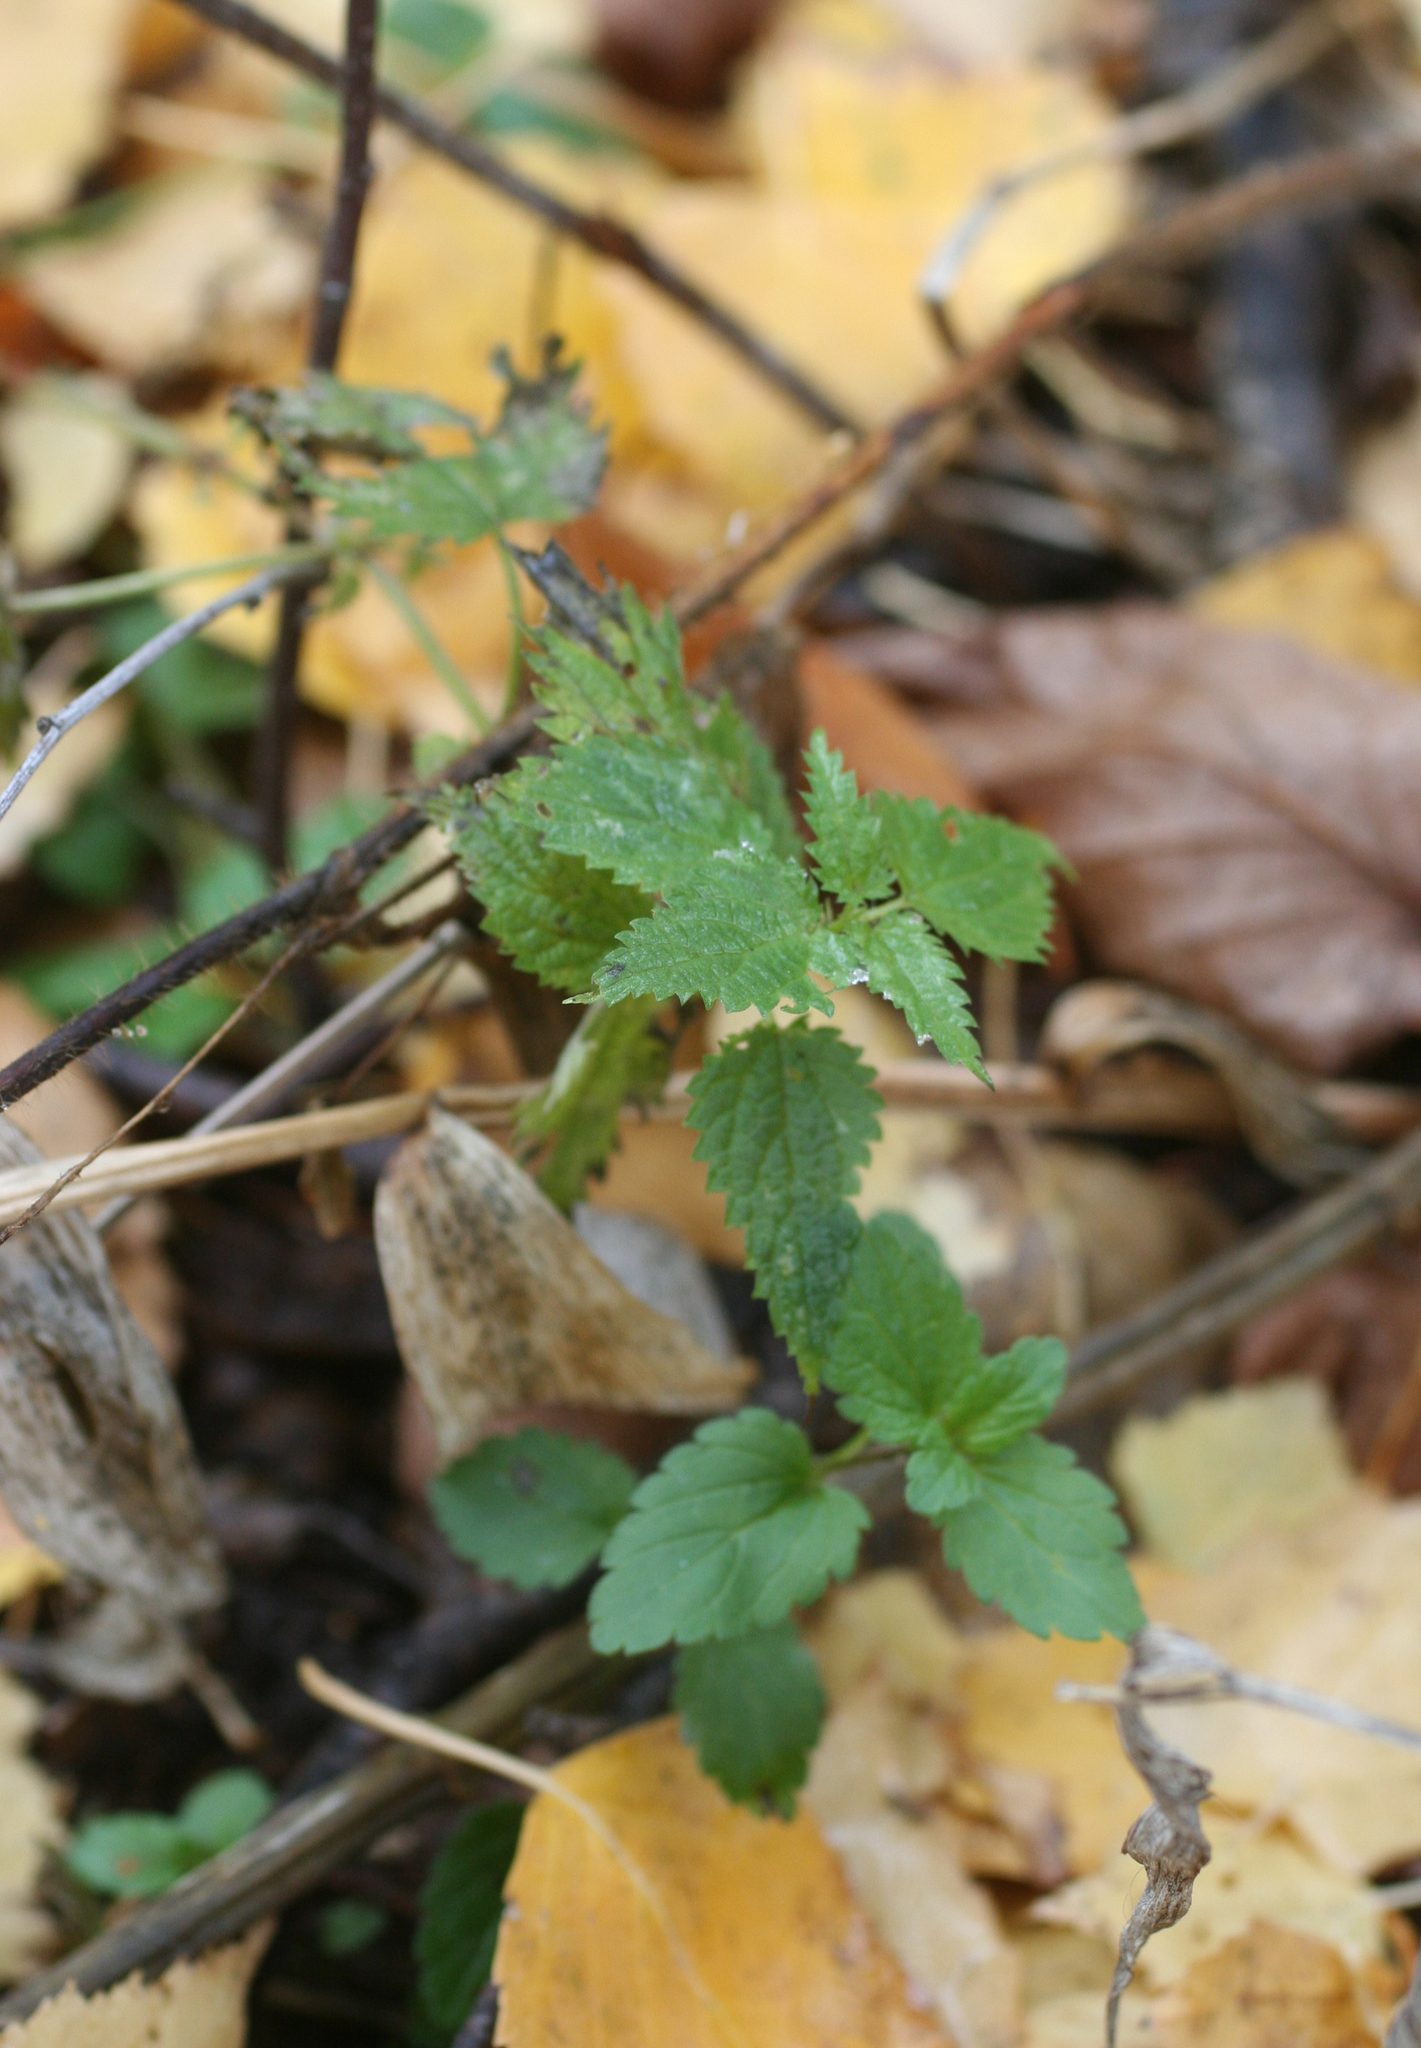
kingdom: Plantae
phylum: Tracheophyta
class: Magnoliopsida
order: Rosales
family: Urticaceae
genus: Urtica
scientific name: Urtica dioica
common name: Common nettle
